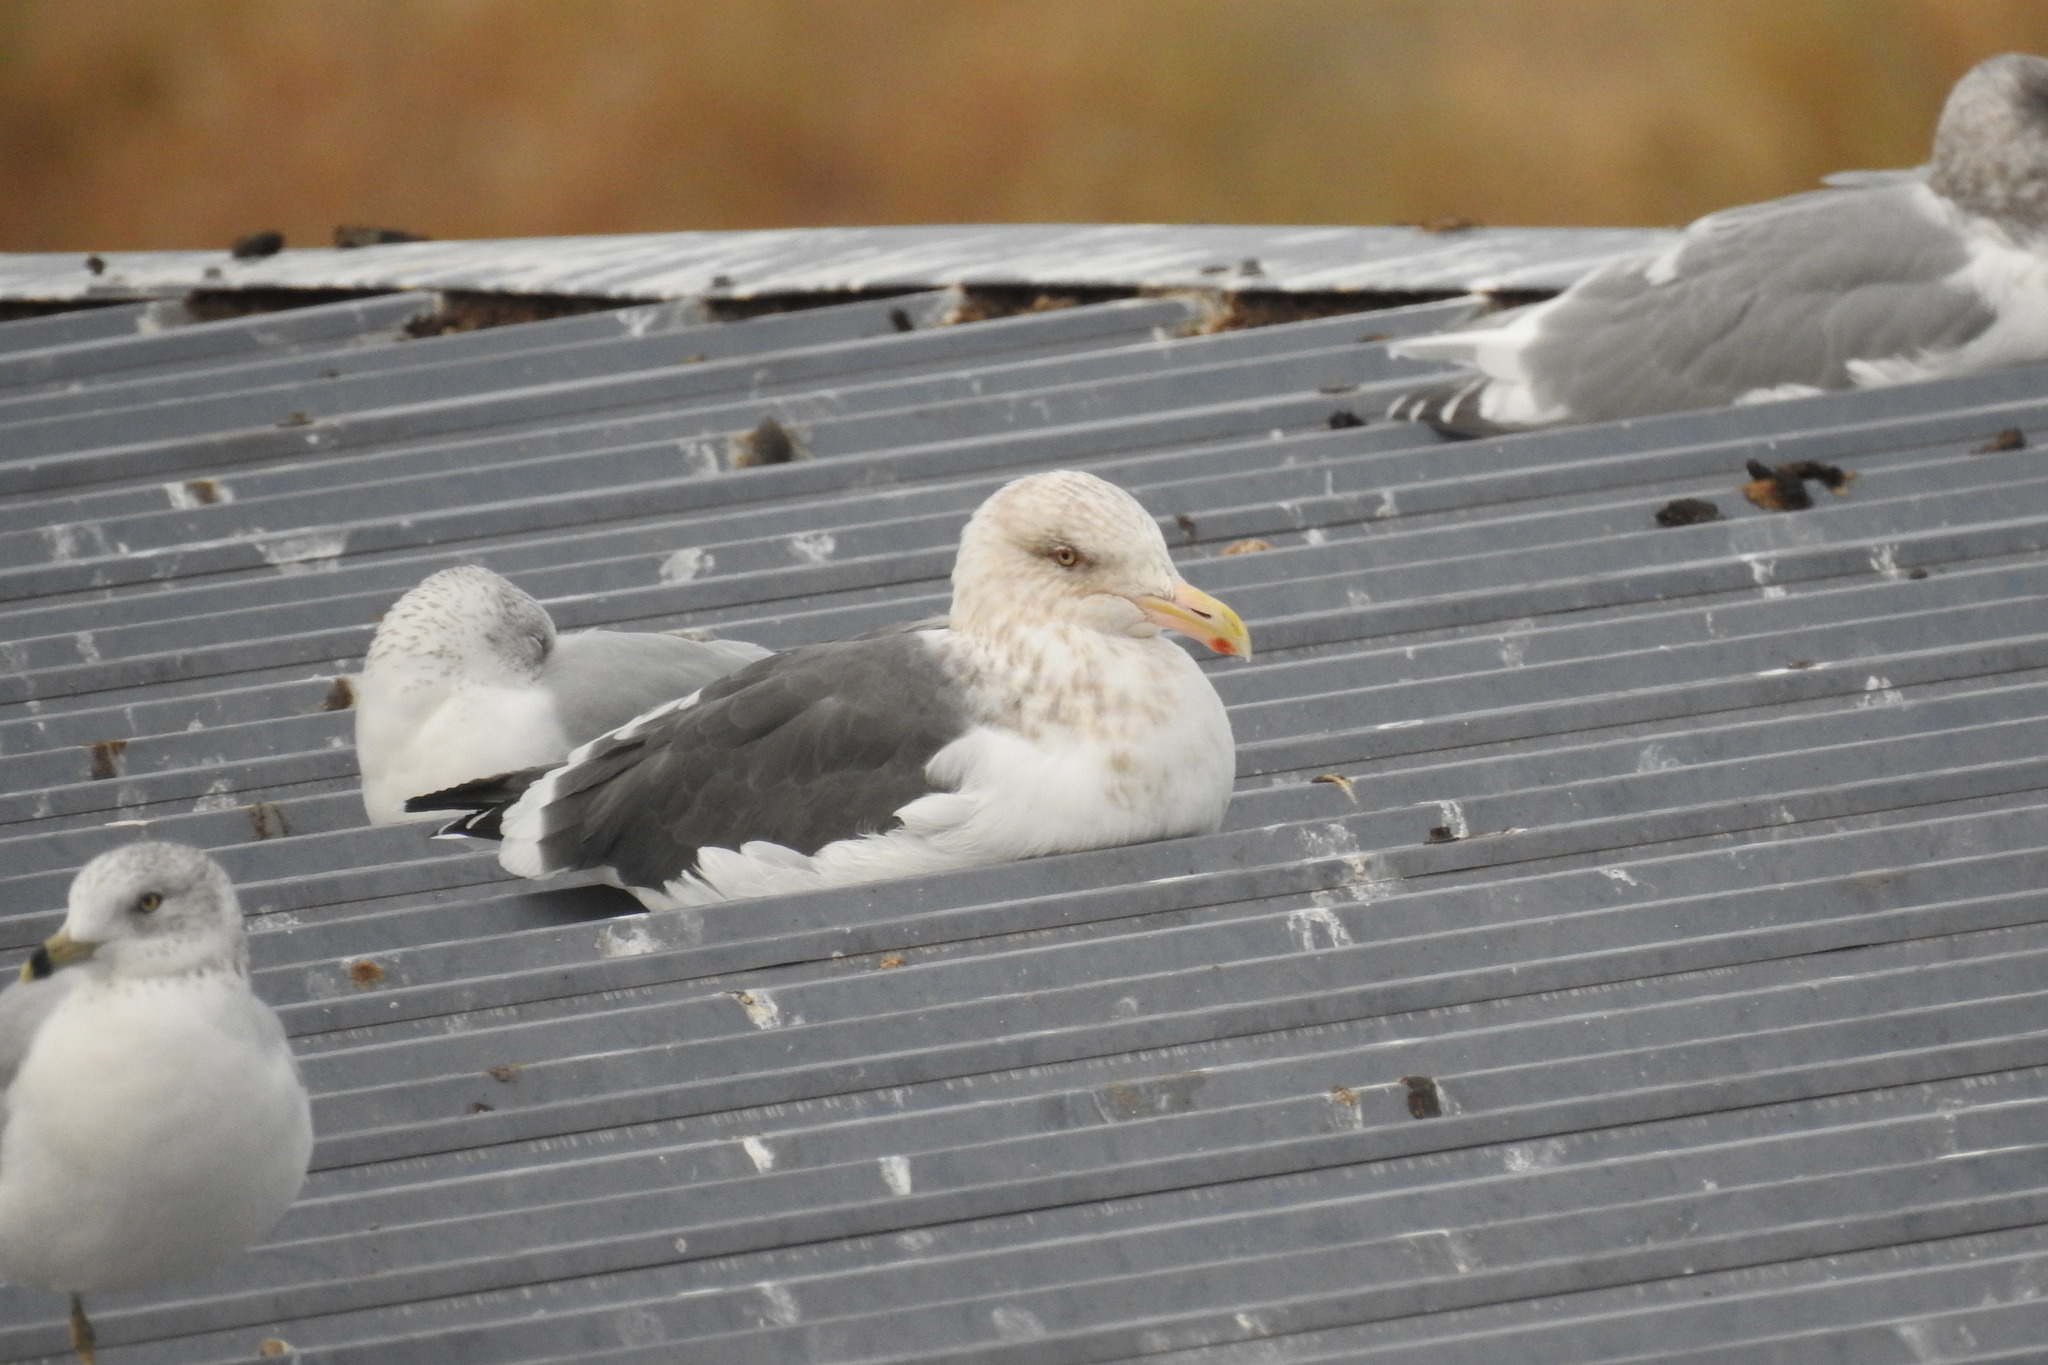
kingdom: Animalia
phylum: Chordata
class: Aves
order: Charadriiformes
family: Laridae
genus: Larus
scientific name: Larus schistisagus
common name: Slaty-backed gull
